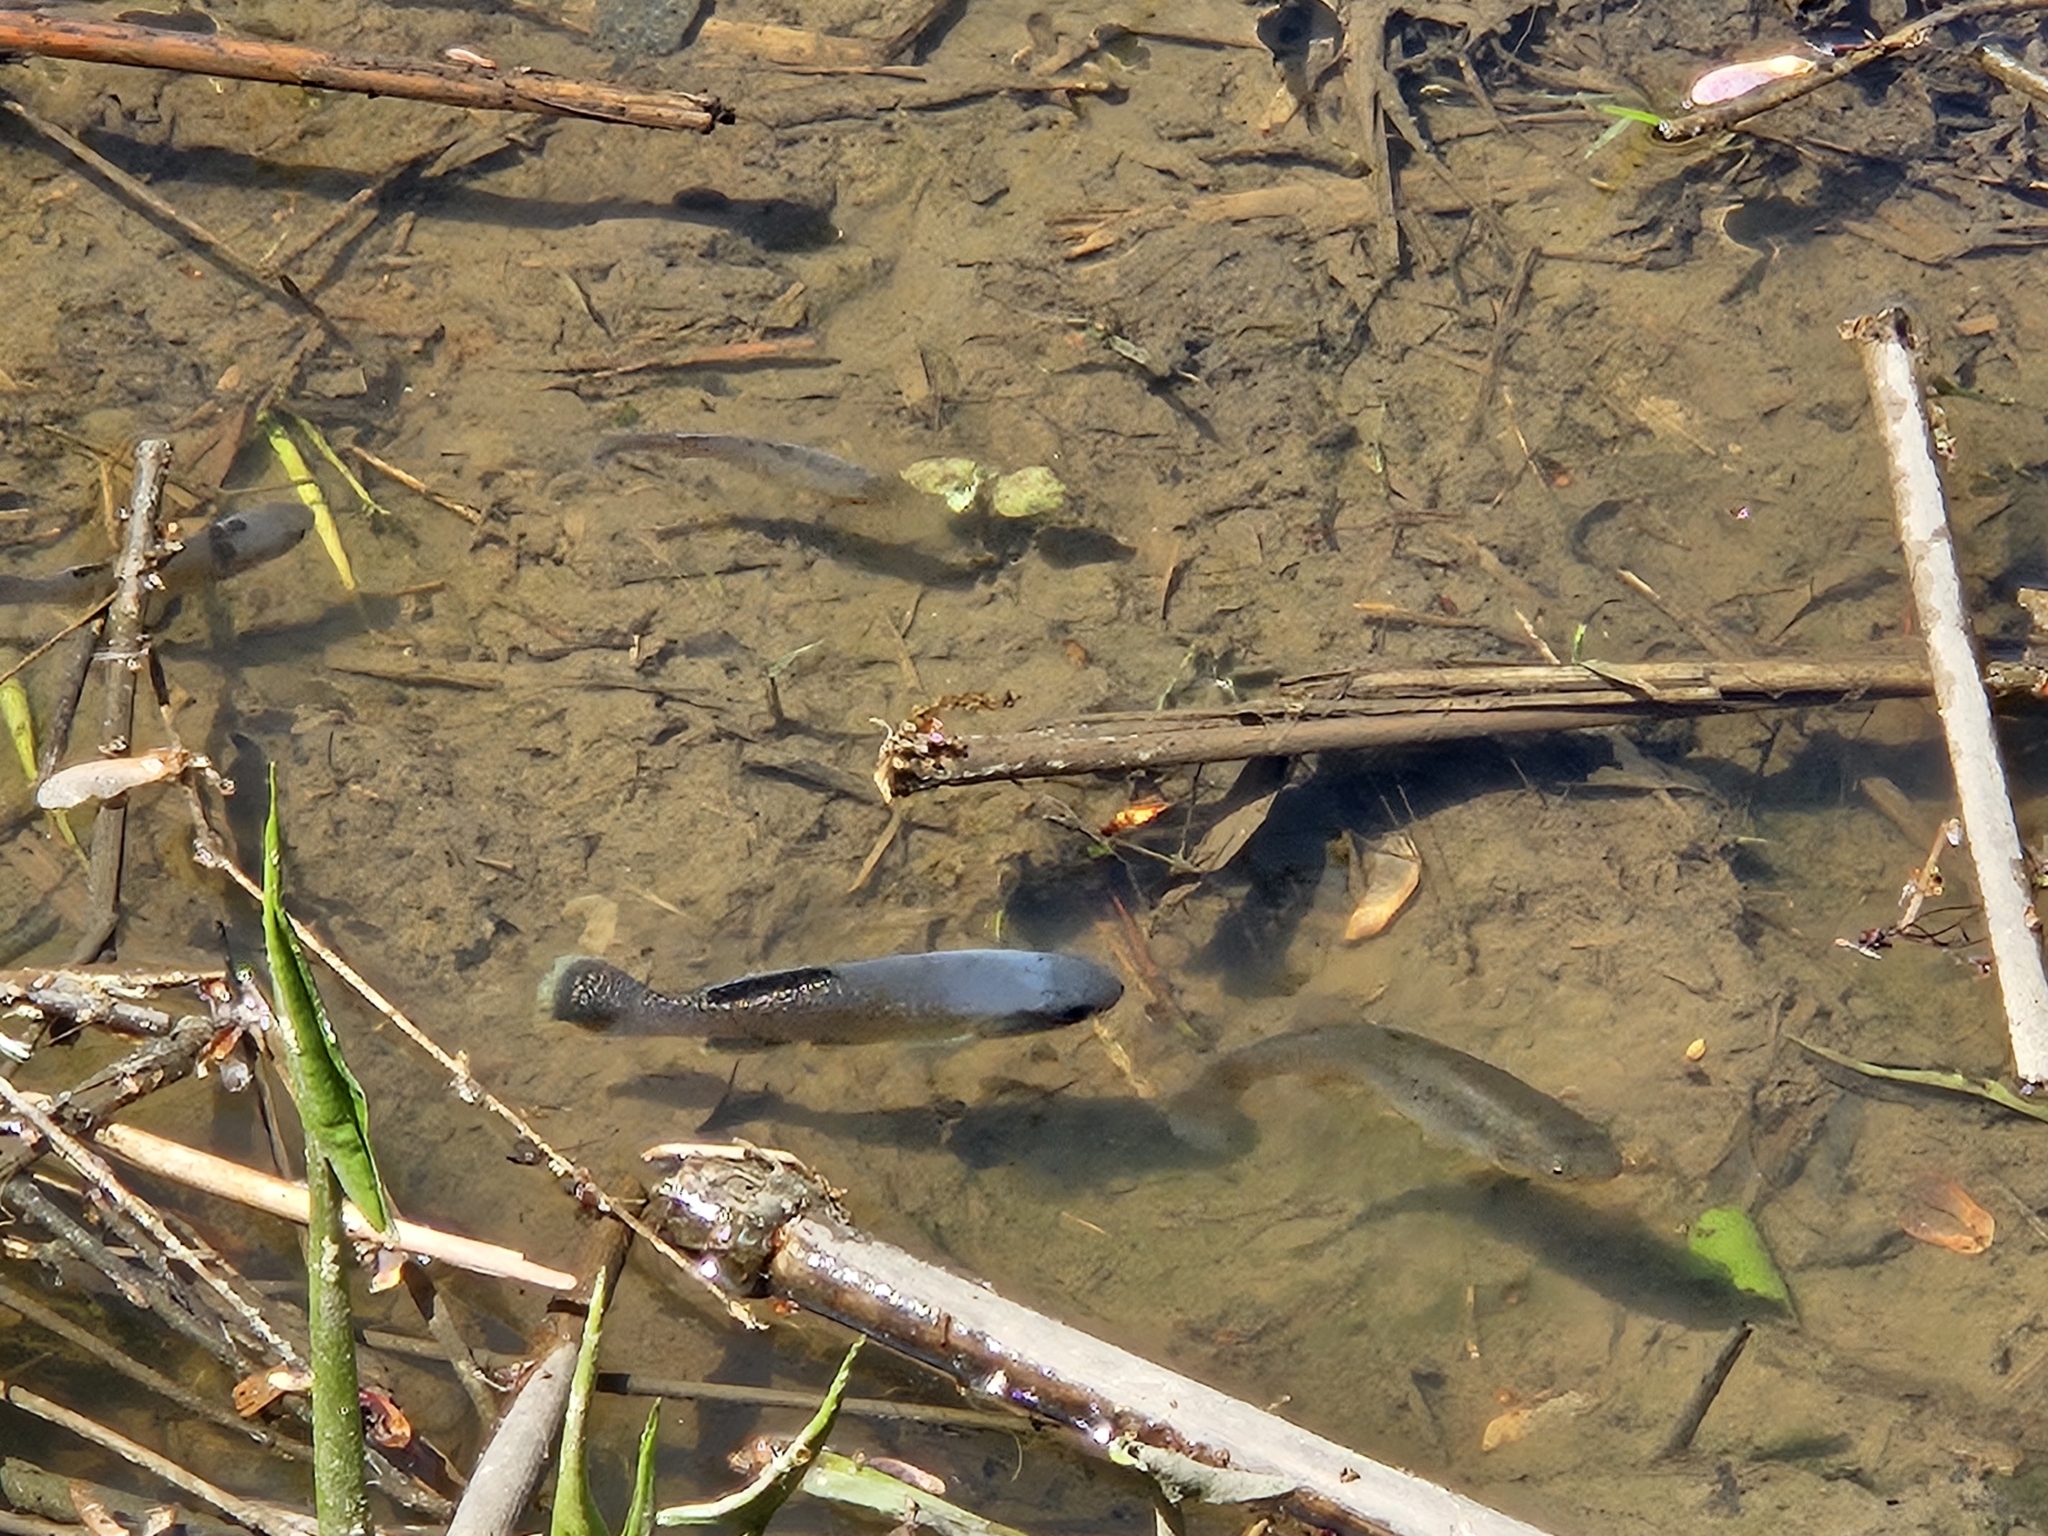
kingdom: Animalia
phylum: Chordata
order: Cyprinodontiformes
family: Fundulidae
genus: Fundulus
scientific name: Fundulus heteroclitus
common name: Mummichog
